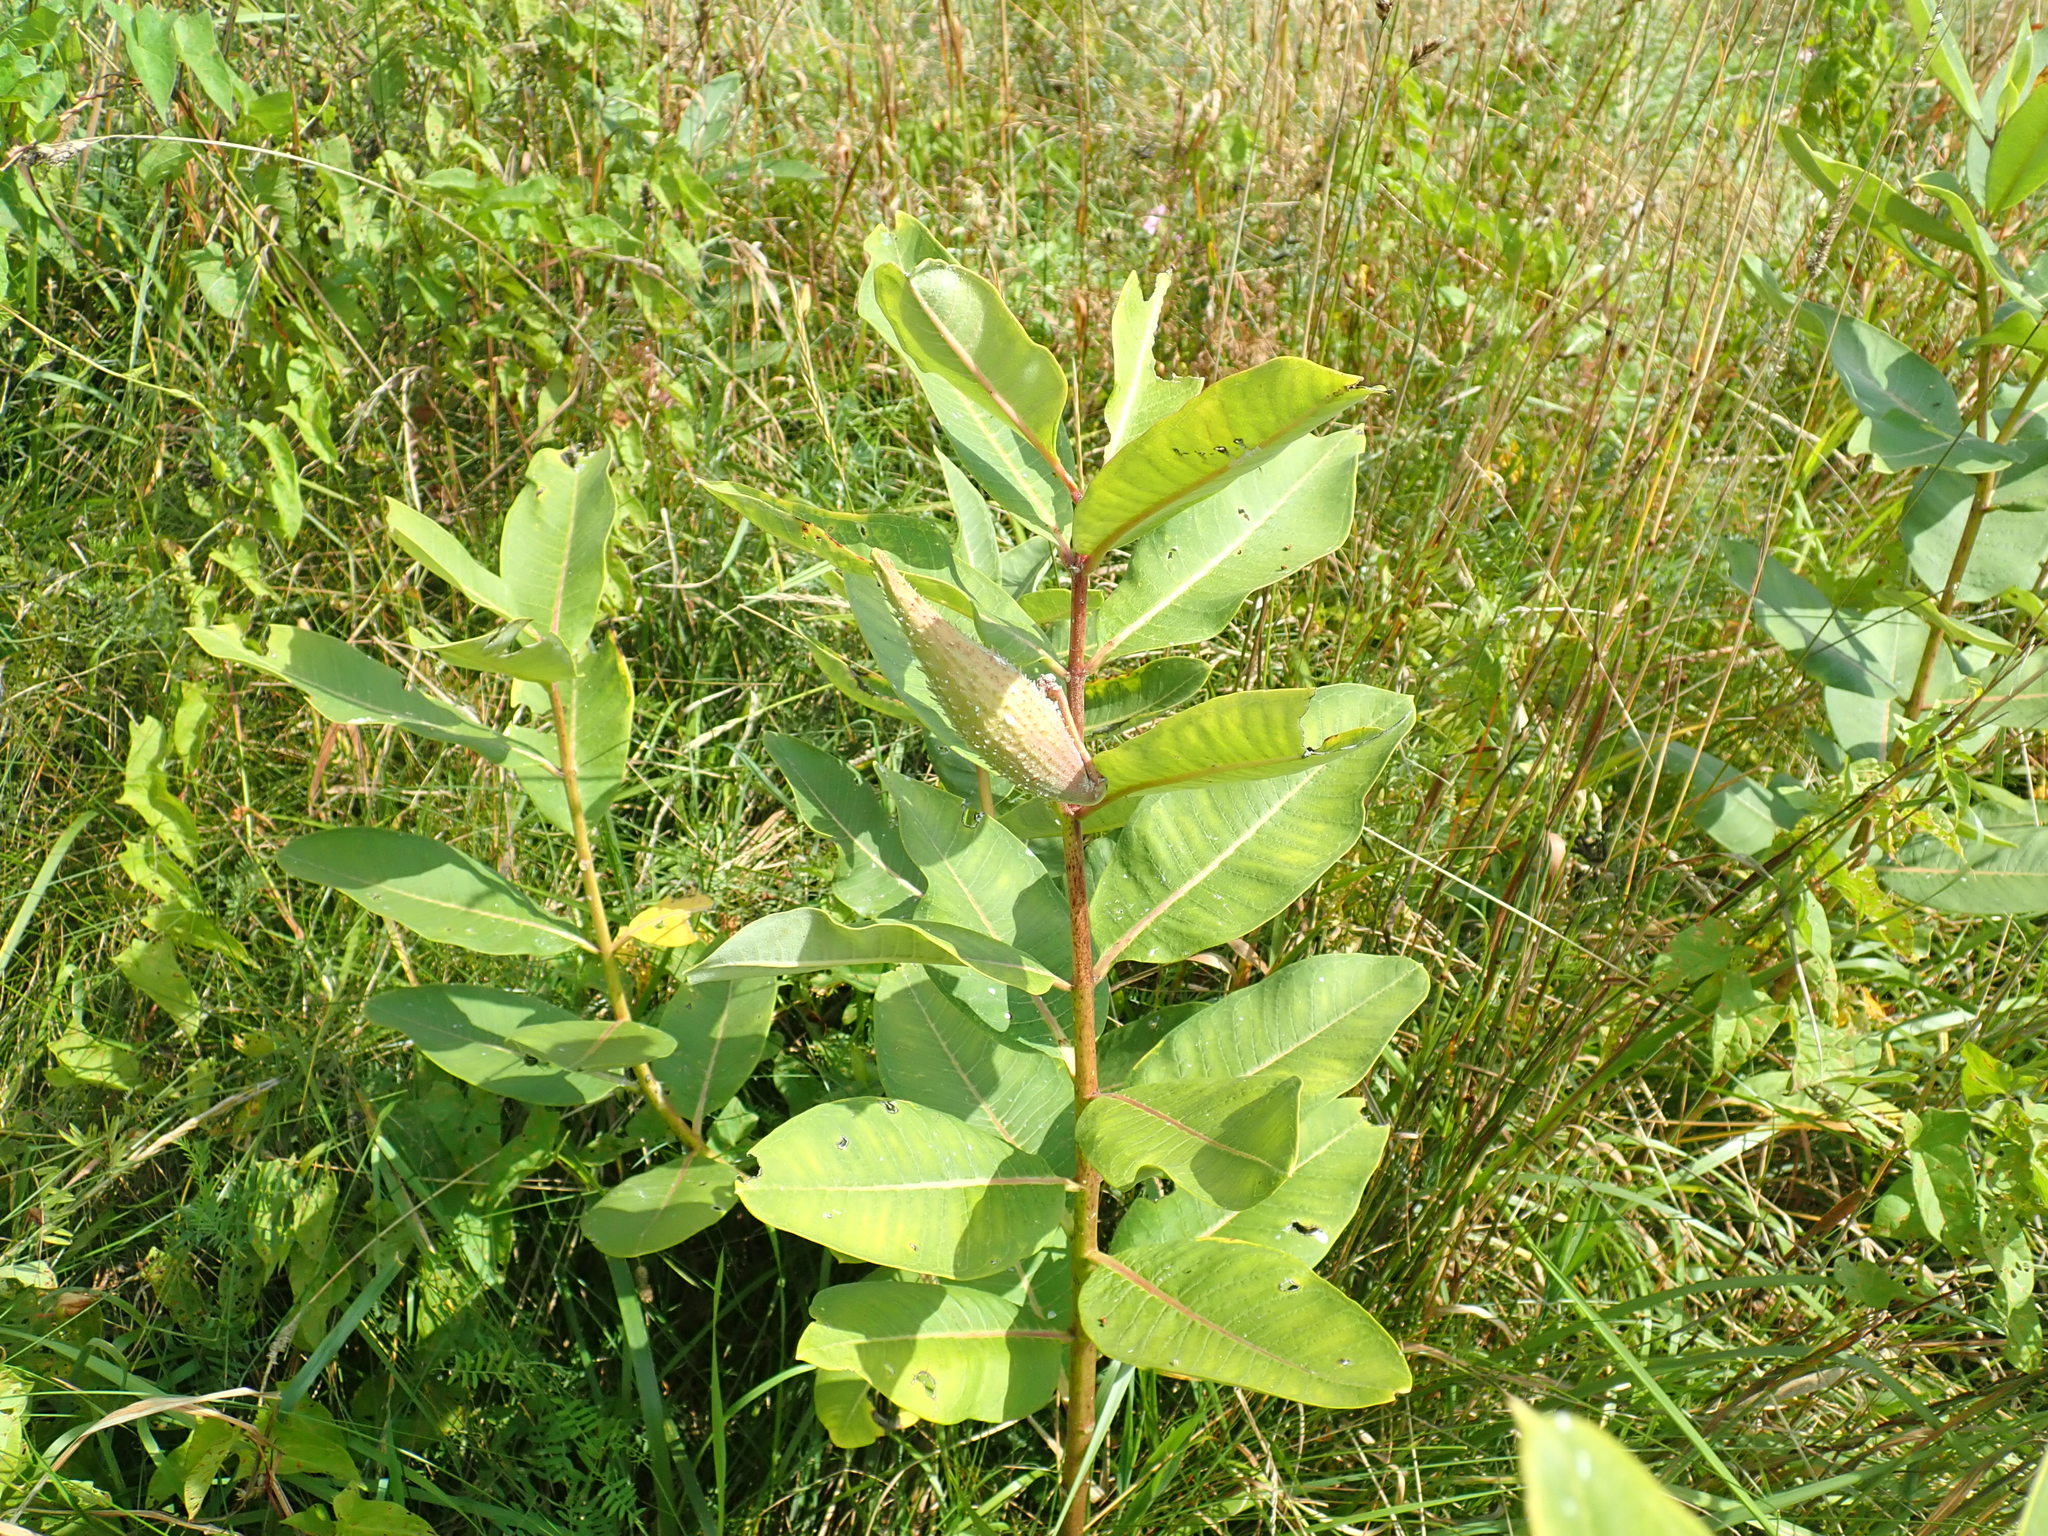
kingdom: Plantae
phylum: Tracheophyta
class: Magnoliopsida
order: Gentianales
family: Apocynaceae
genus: Asclepias
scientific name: Asclepias syriaca
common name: Common milkweed
